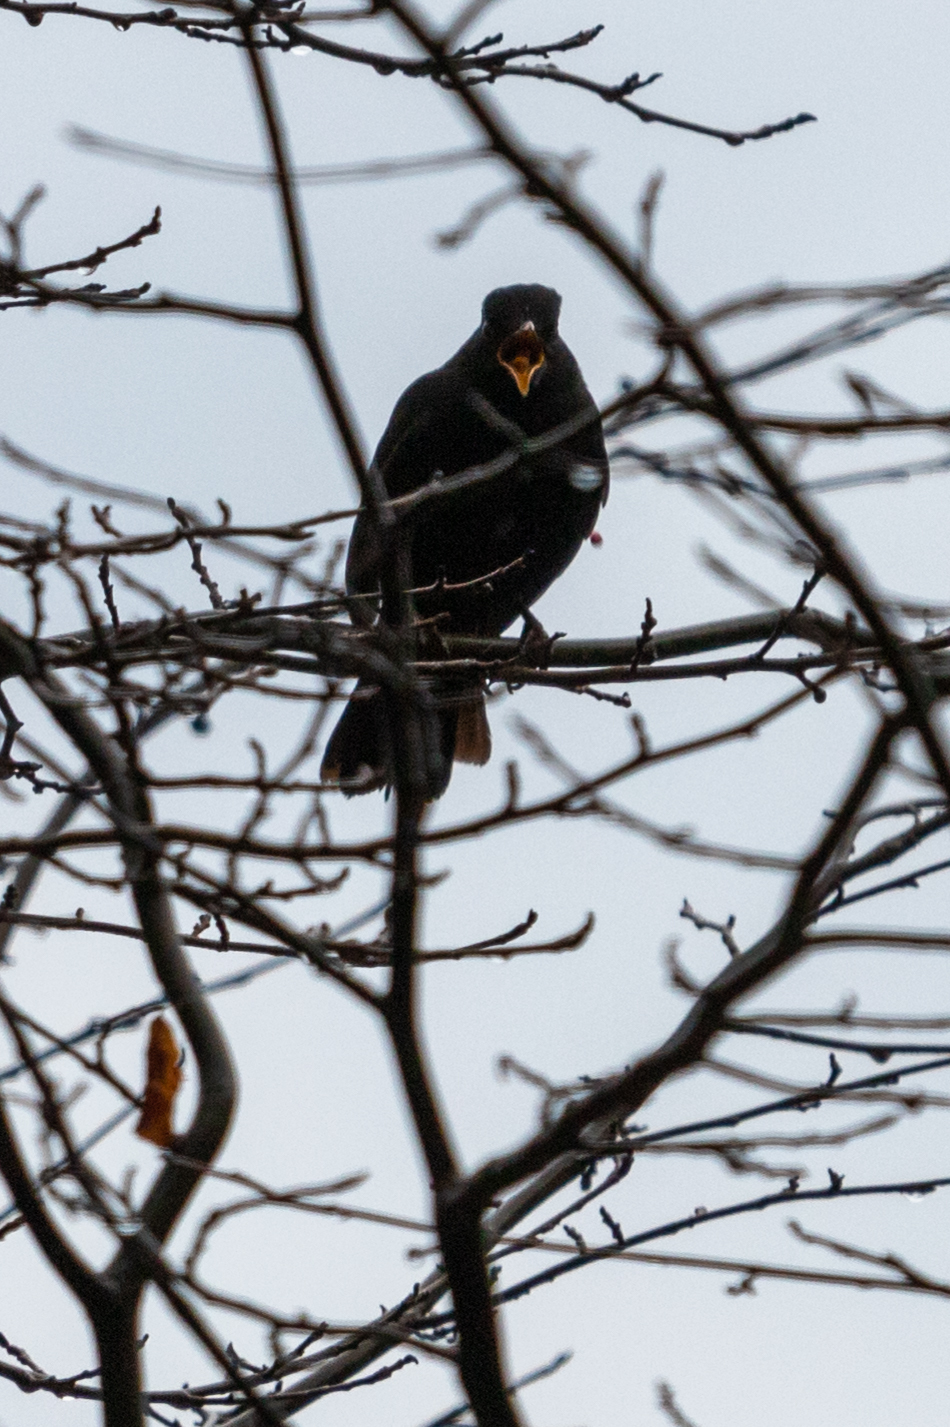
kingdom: Animalia
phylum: Chordata
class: Aves
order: Passeriformes
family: Turdidae
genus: Turdus
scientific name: Turdus merula
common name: Common blackbird
